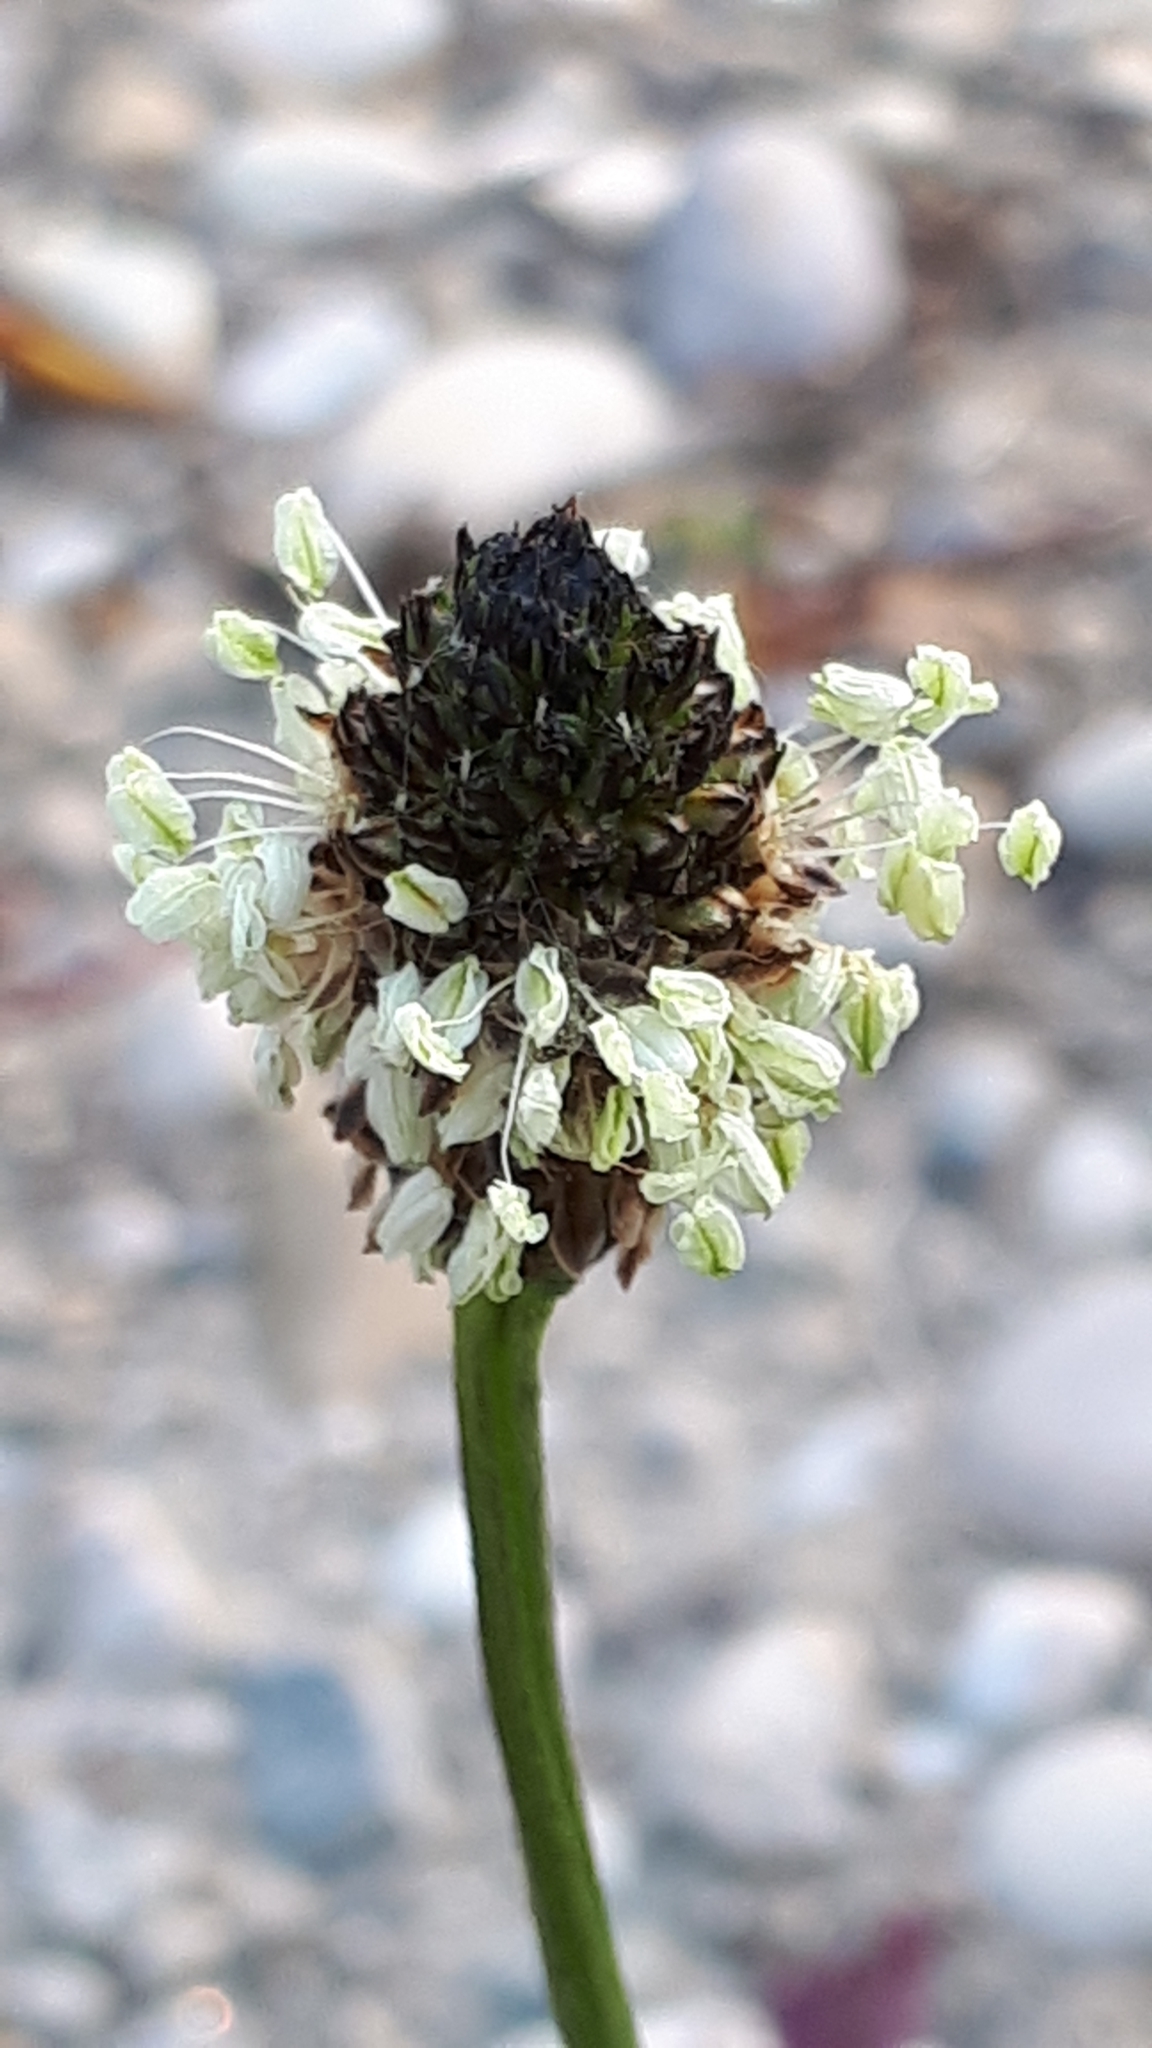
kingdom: Plantae
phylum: Tracheophyta
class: Magnoliopsida
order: Lamiales
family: Plantaginaceae
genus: Plantago
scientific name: Plantago lanceolata
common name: Ribwort plantain
